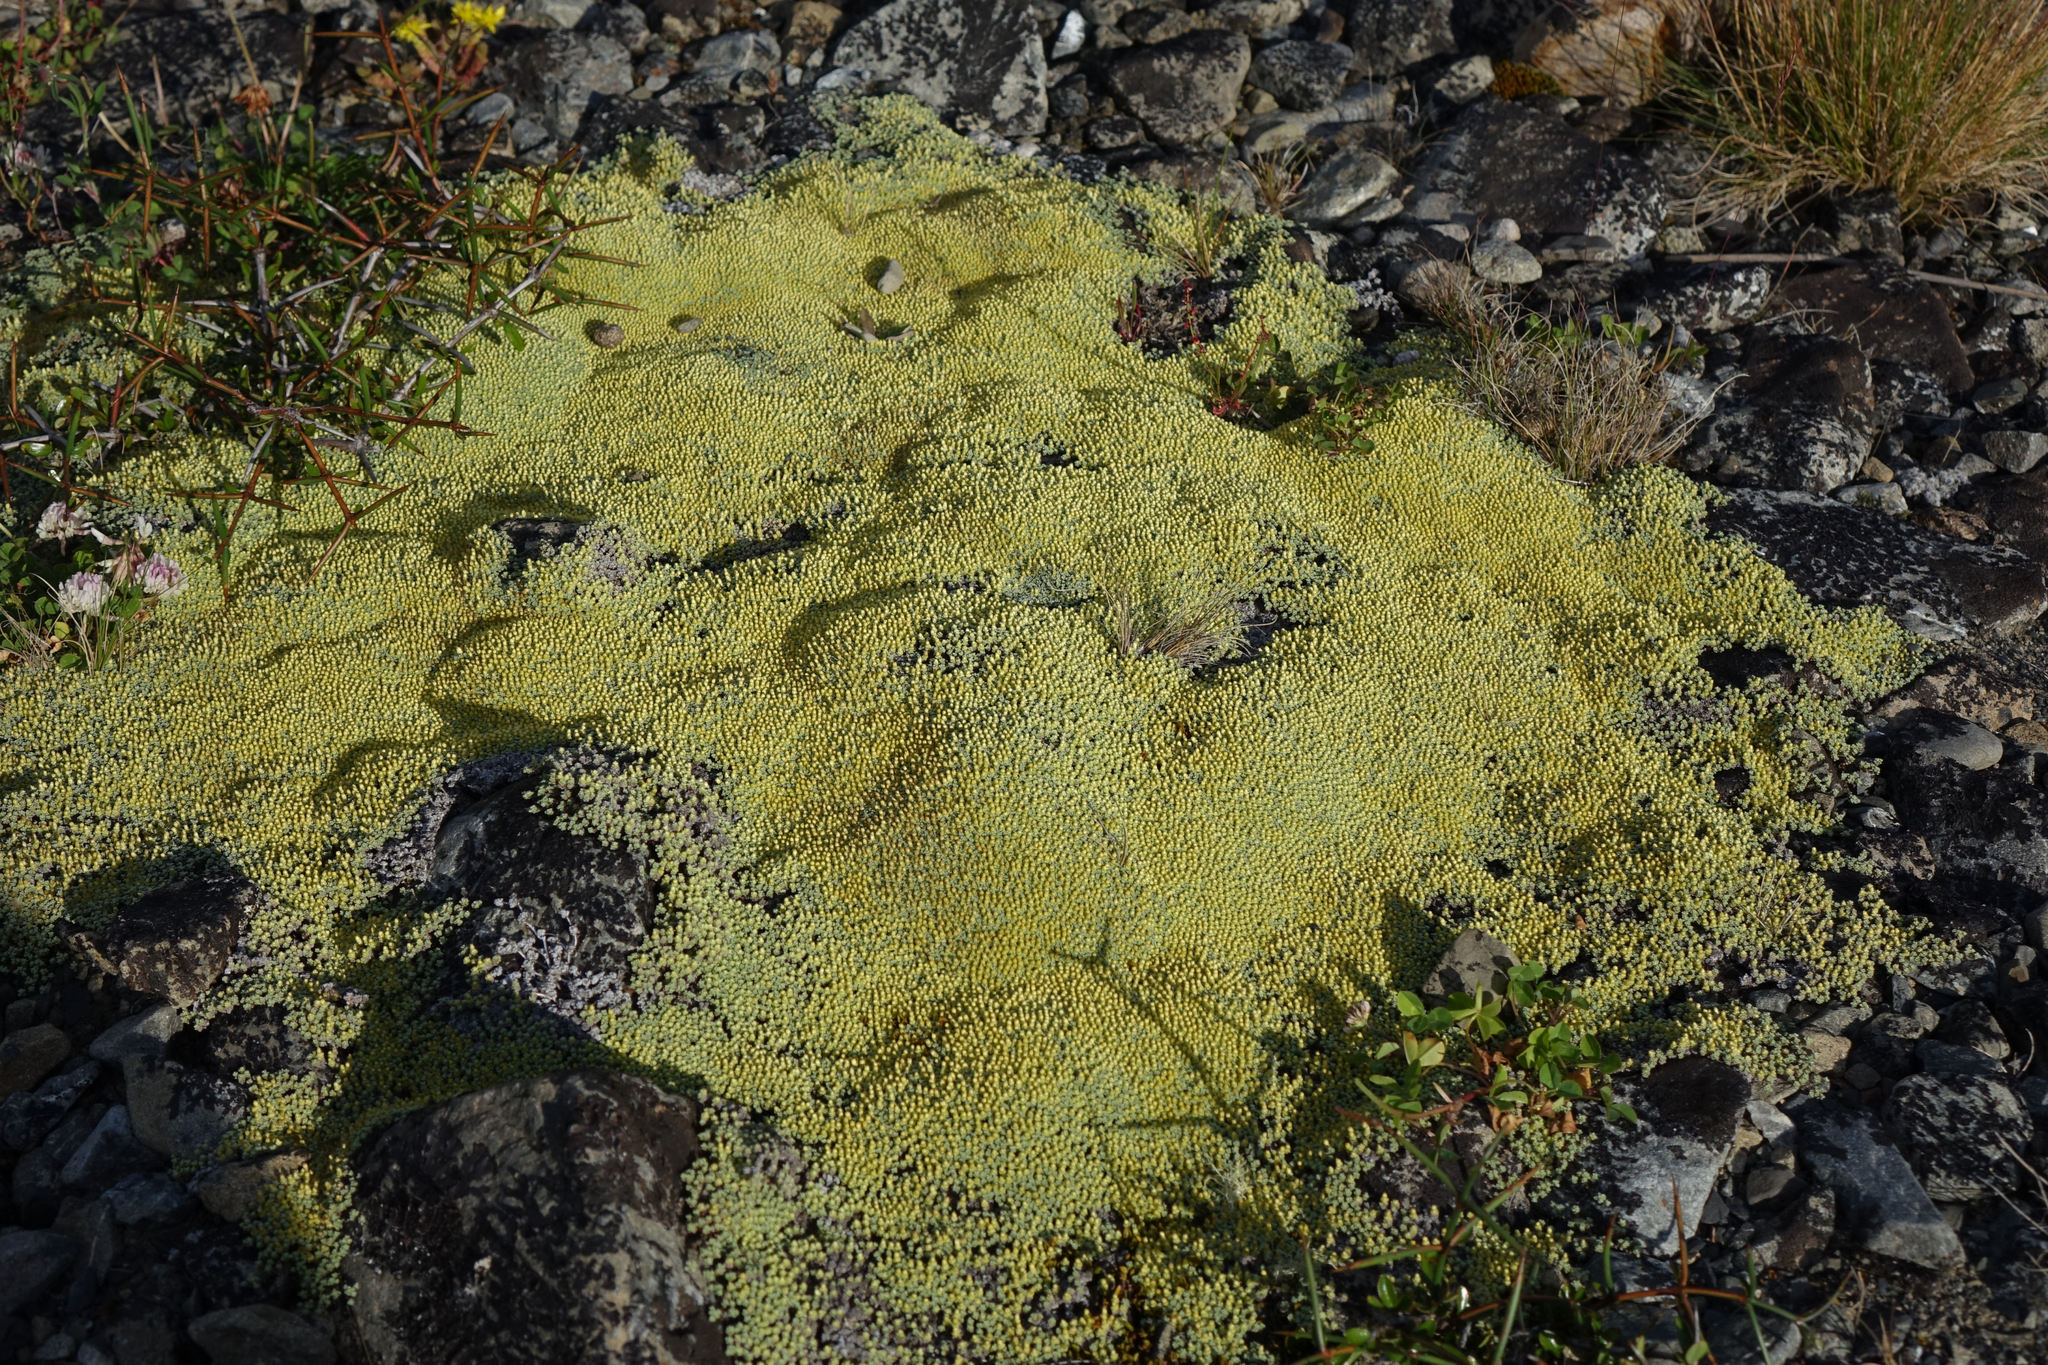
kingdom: Plantae
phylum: Tracheophyta
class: Magnoliopsida
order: Asterales
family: Asteraceae
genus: Raoulia
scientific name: Raoulia australis
